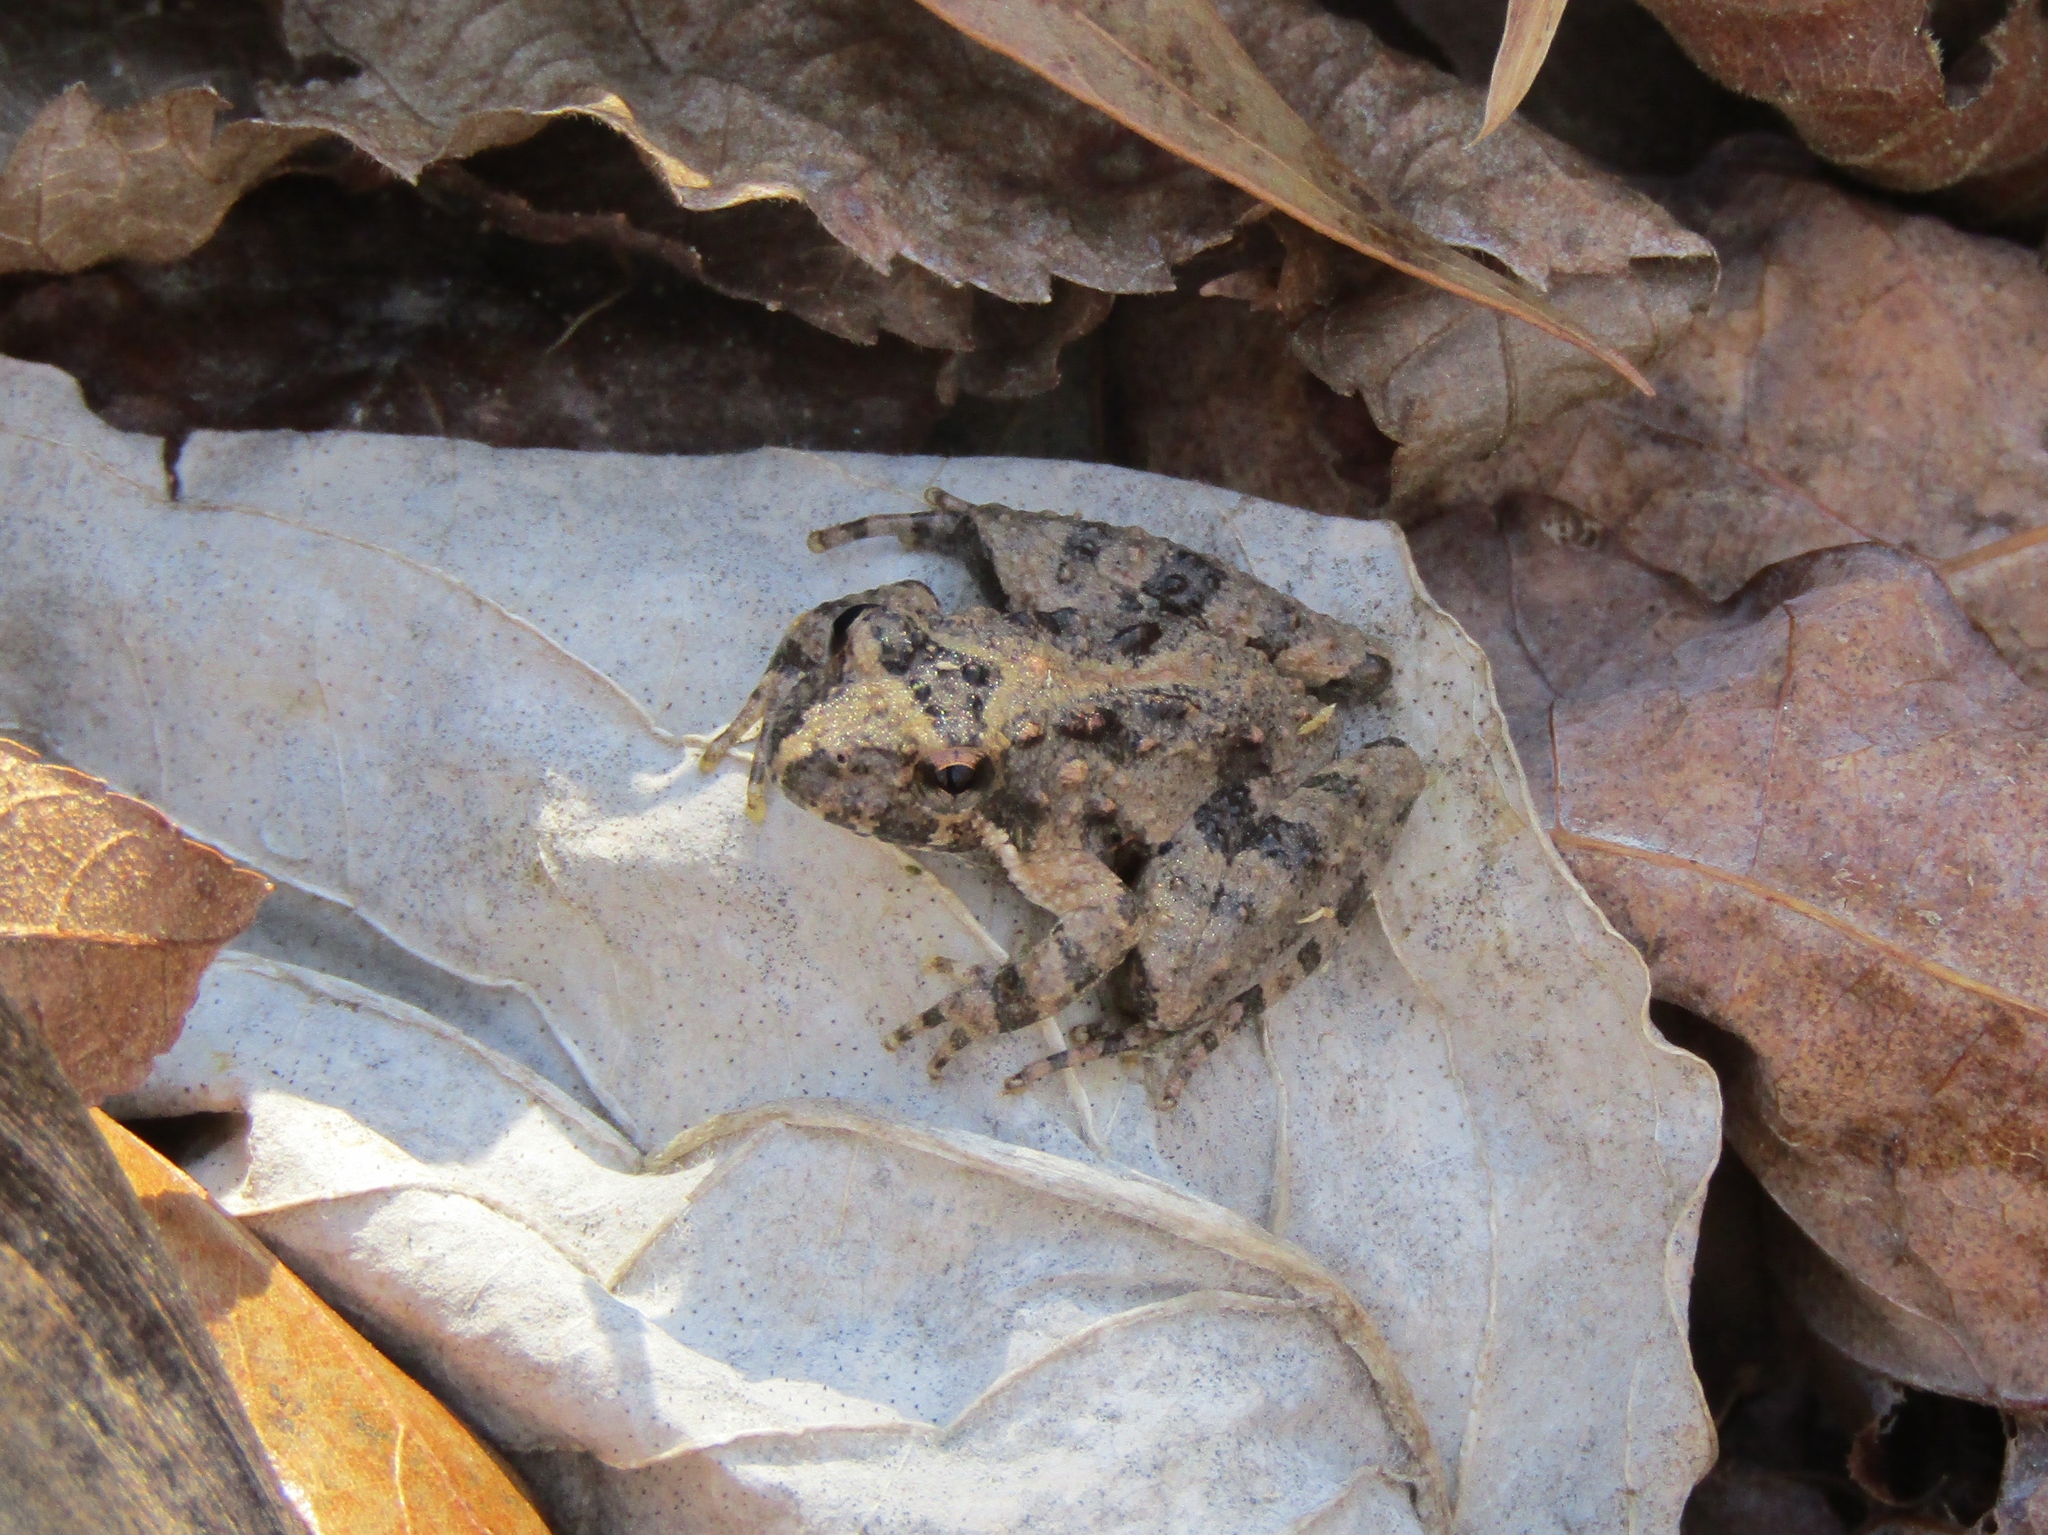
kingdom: Animalia
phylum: Chordata
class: Amphibia
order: Anura
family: Hylidae
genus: Acris
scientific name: Acris crepitans
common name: Northern cricket frog
